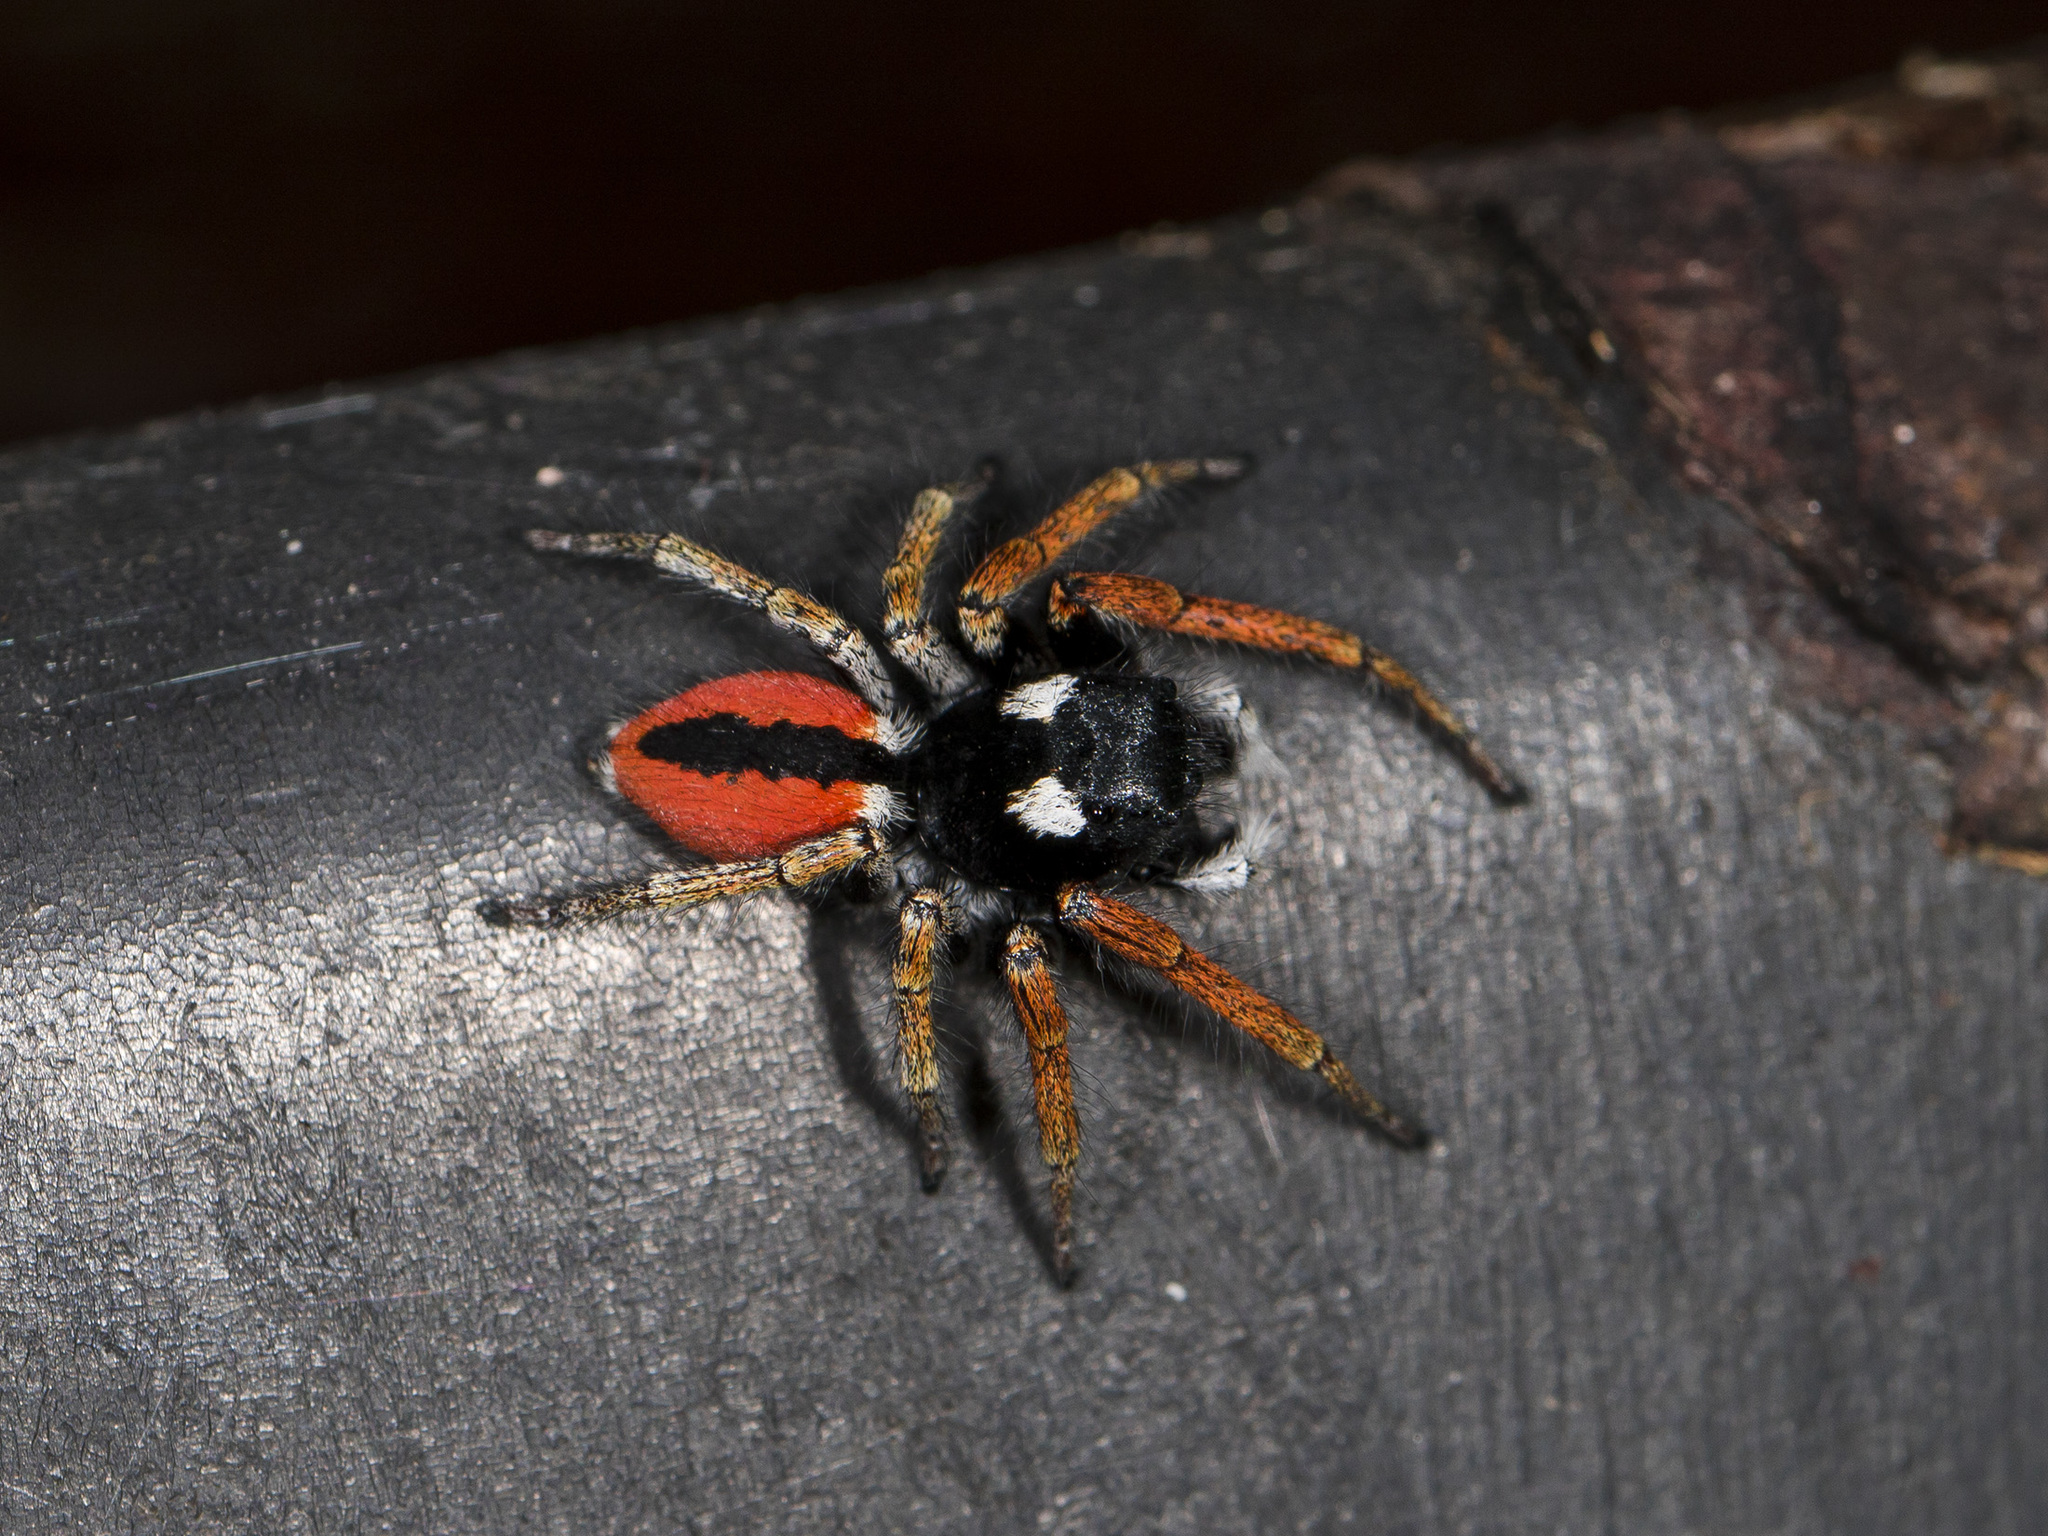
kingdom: Animalia
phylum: Arthropoda
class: Arachnida
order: Araneae
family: Salticidae
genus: Philaeus
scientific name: Philaeus chrysops
